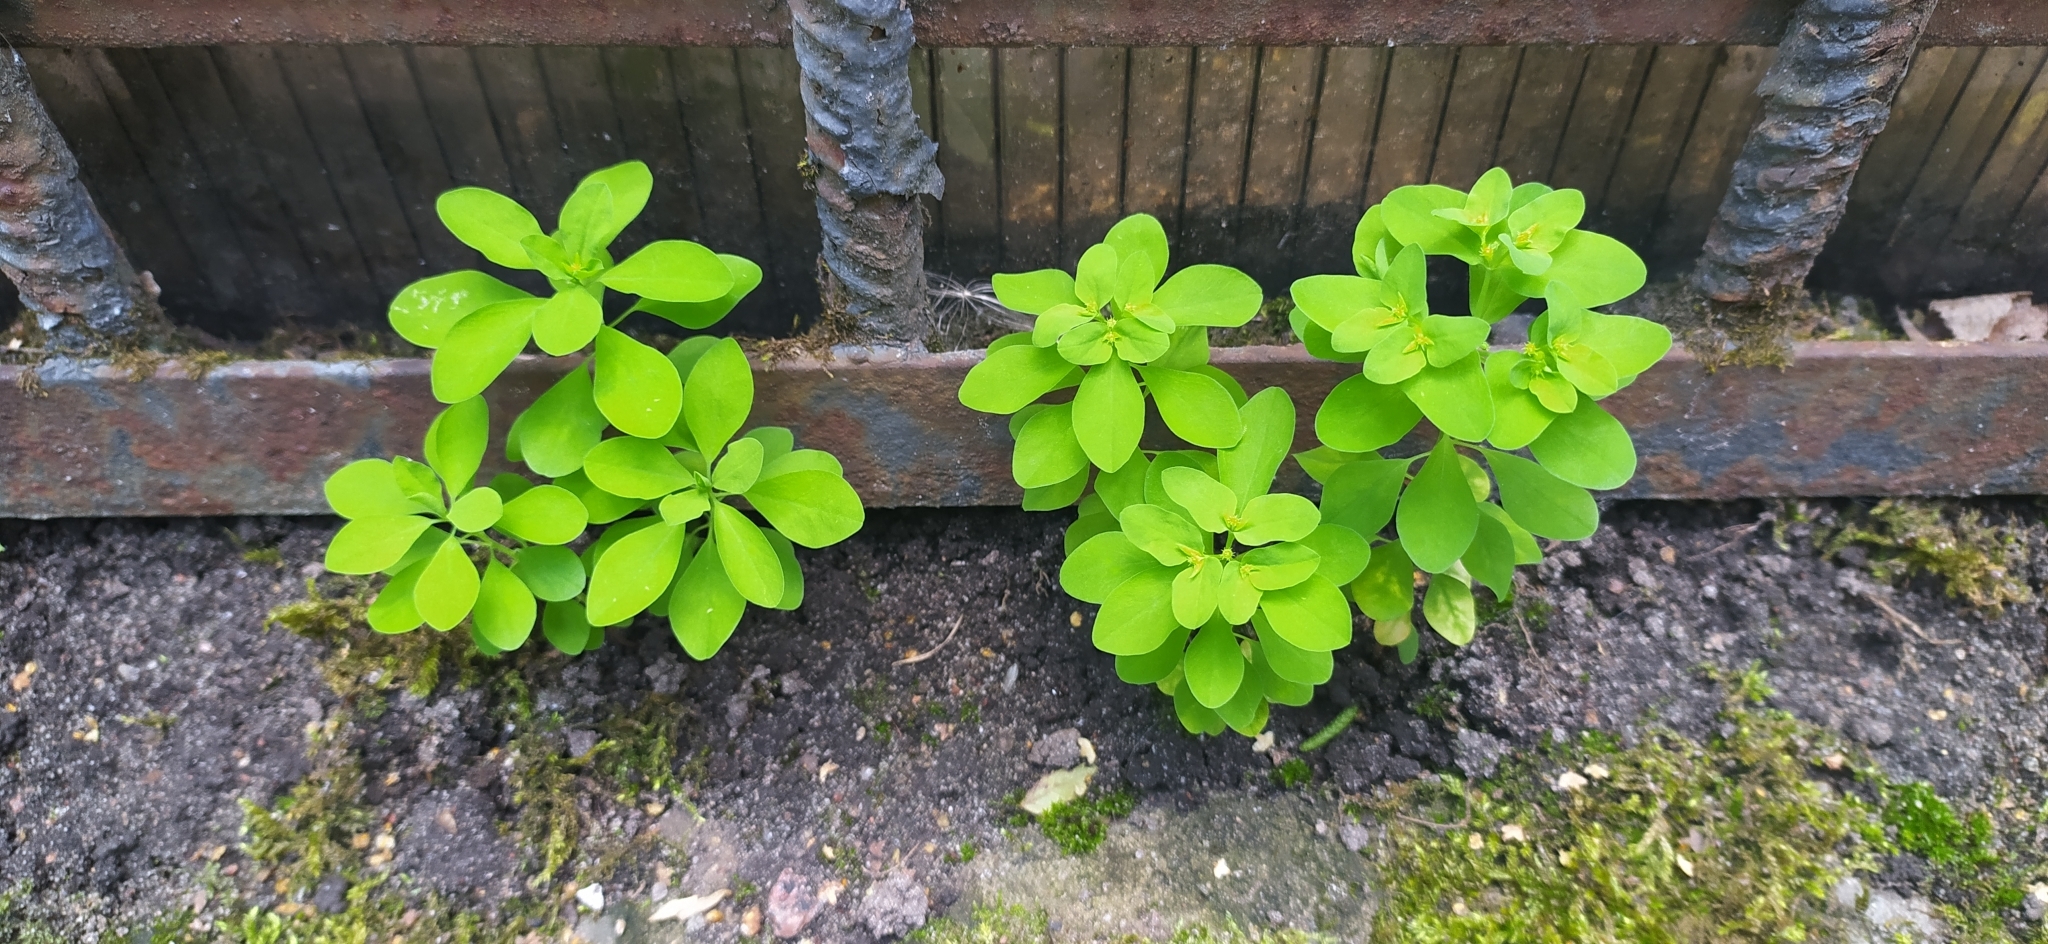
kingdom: Plantae
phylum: Tracheophyta
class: Magnoliopsida
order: Malpighiales
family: Euphorbiaceae
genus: Euphorbia
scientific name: Euphorbia peplus
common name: Petty spurge
